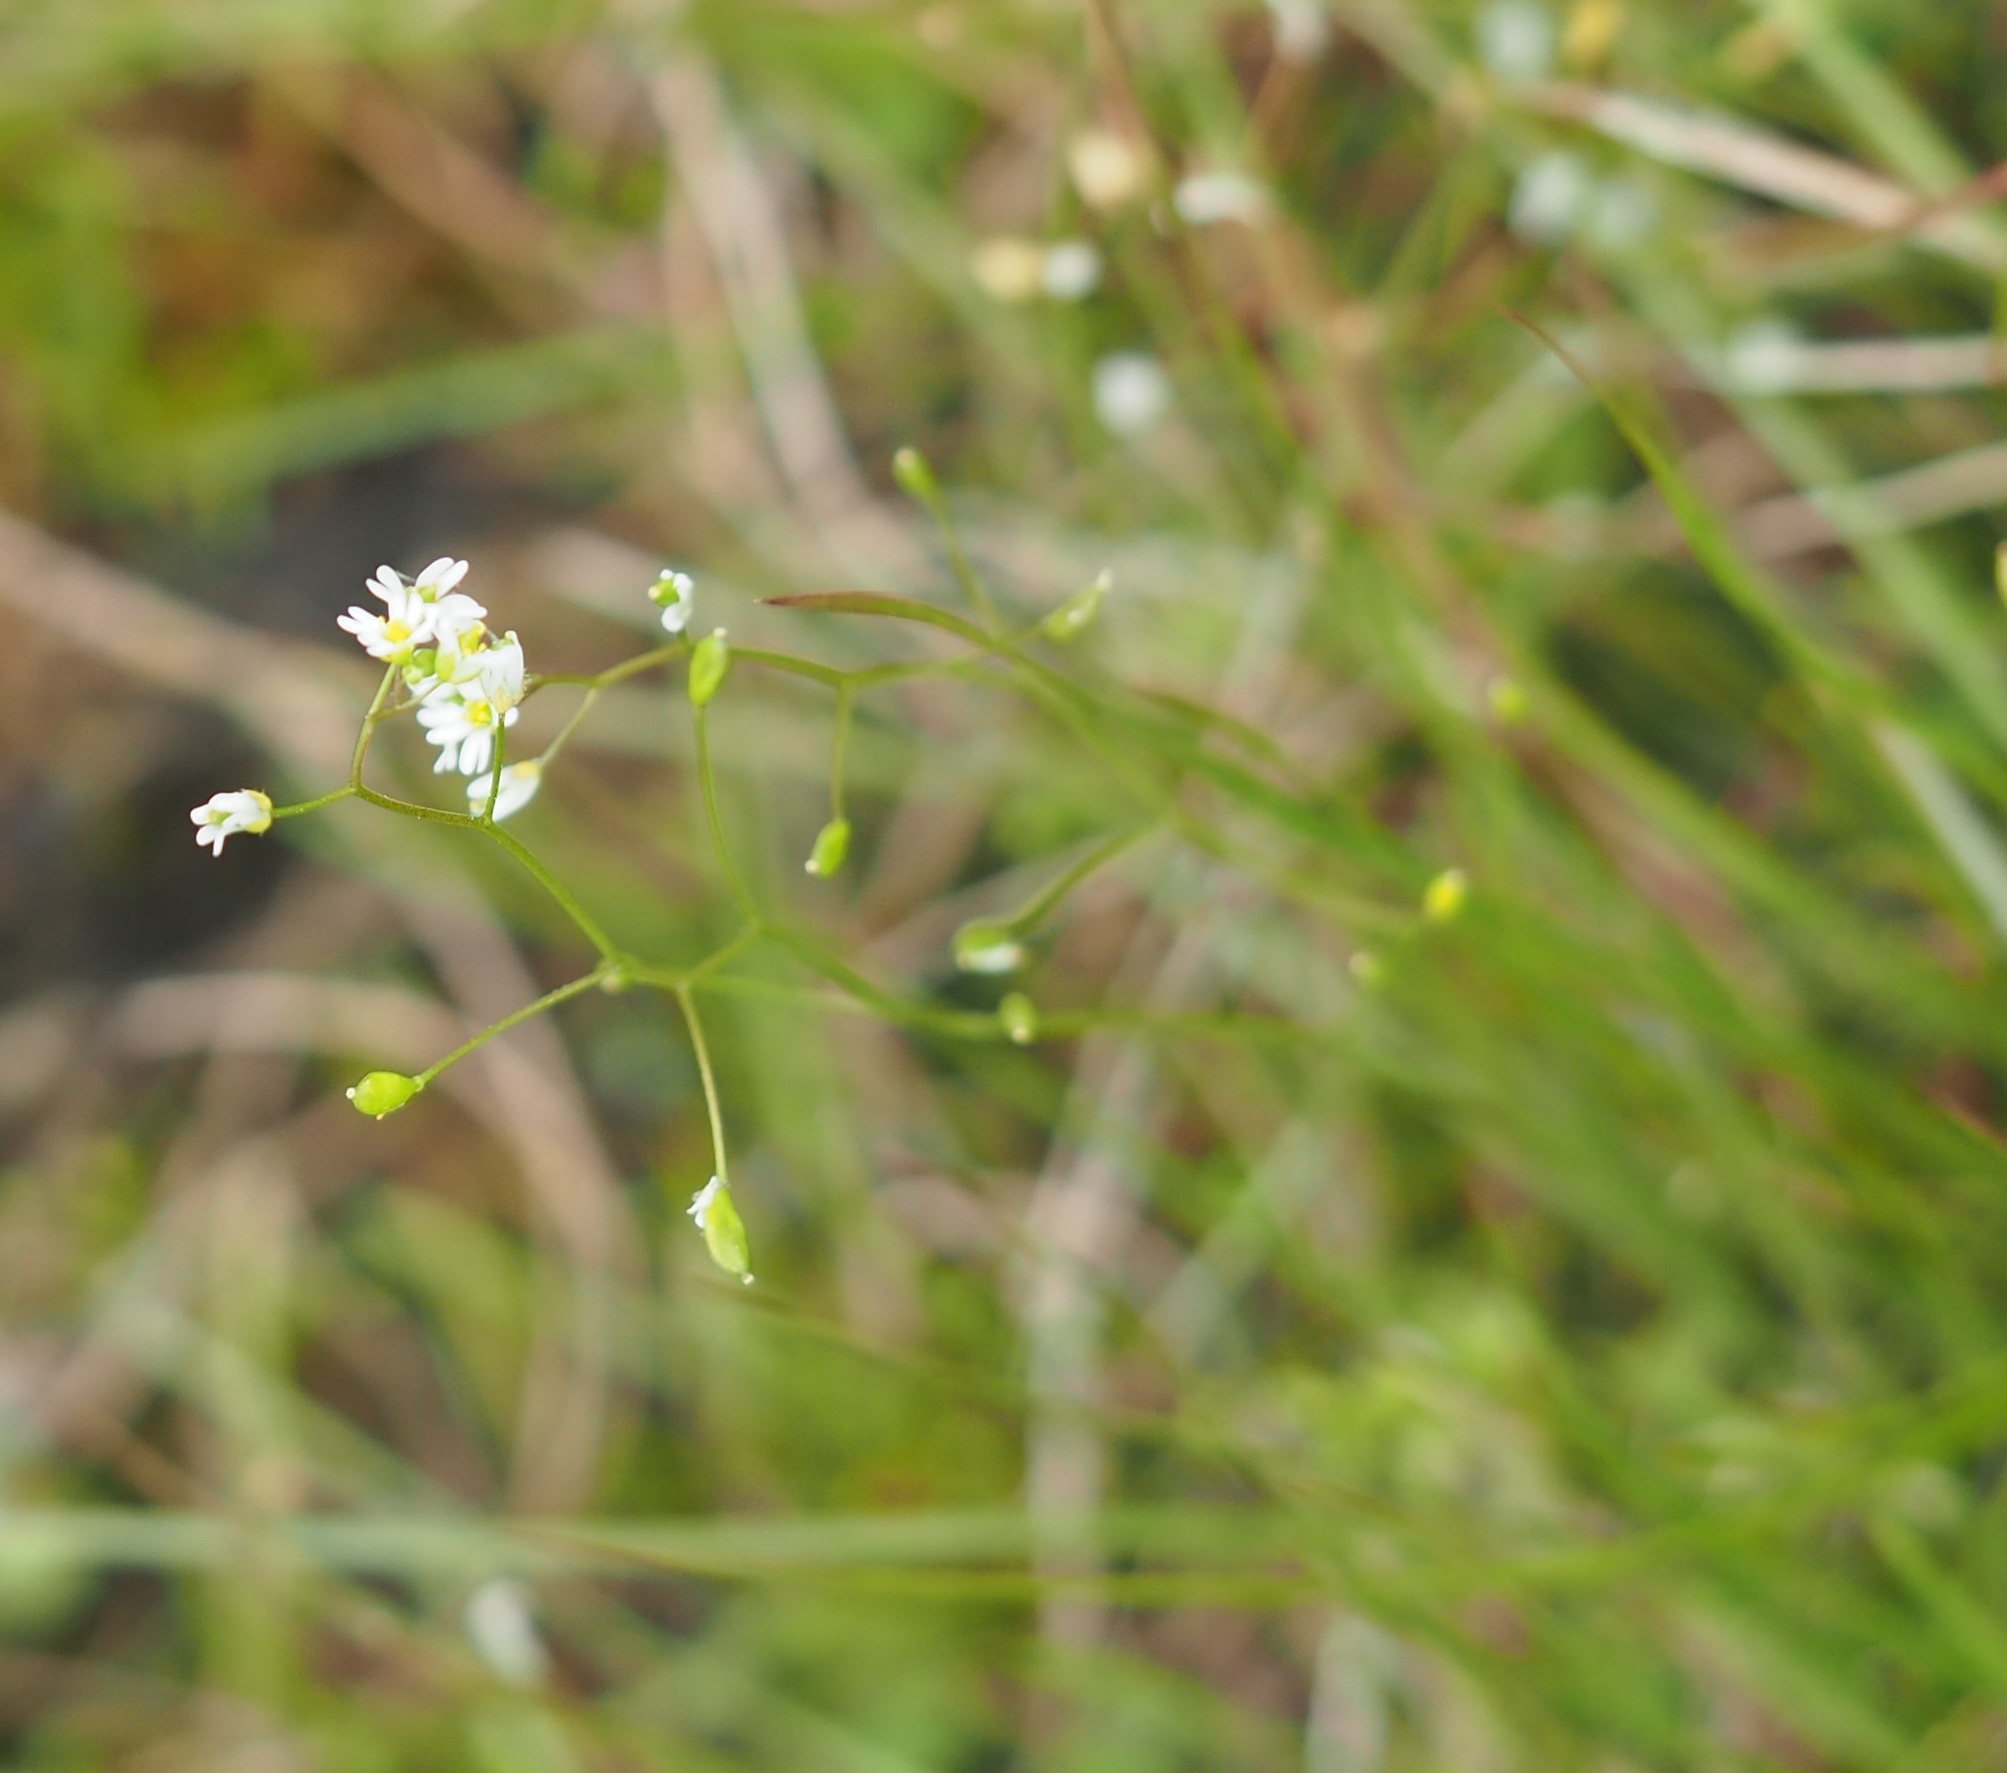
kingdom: Plantae
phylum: Tracheophyta
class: Magnoliopsida
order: Brassicales
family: Brassicaceae
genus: Draba
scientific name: Draba verna
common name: Spring draba
